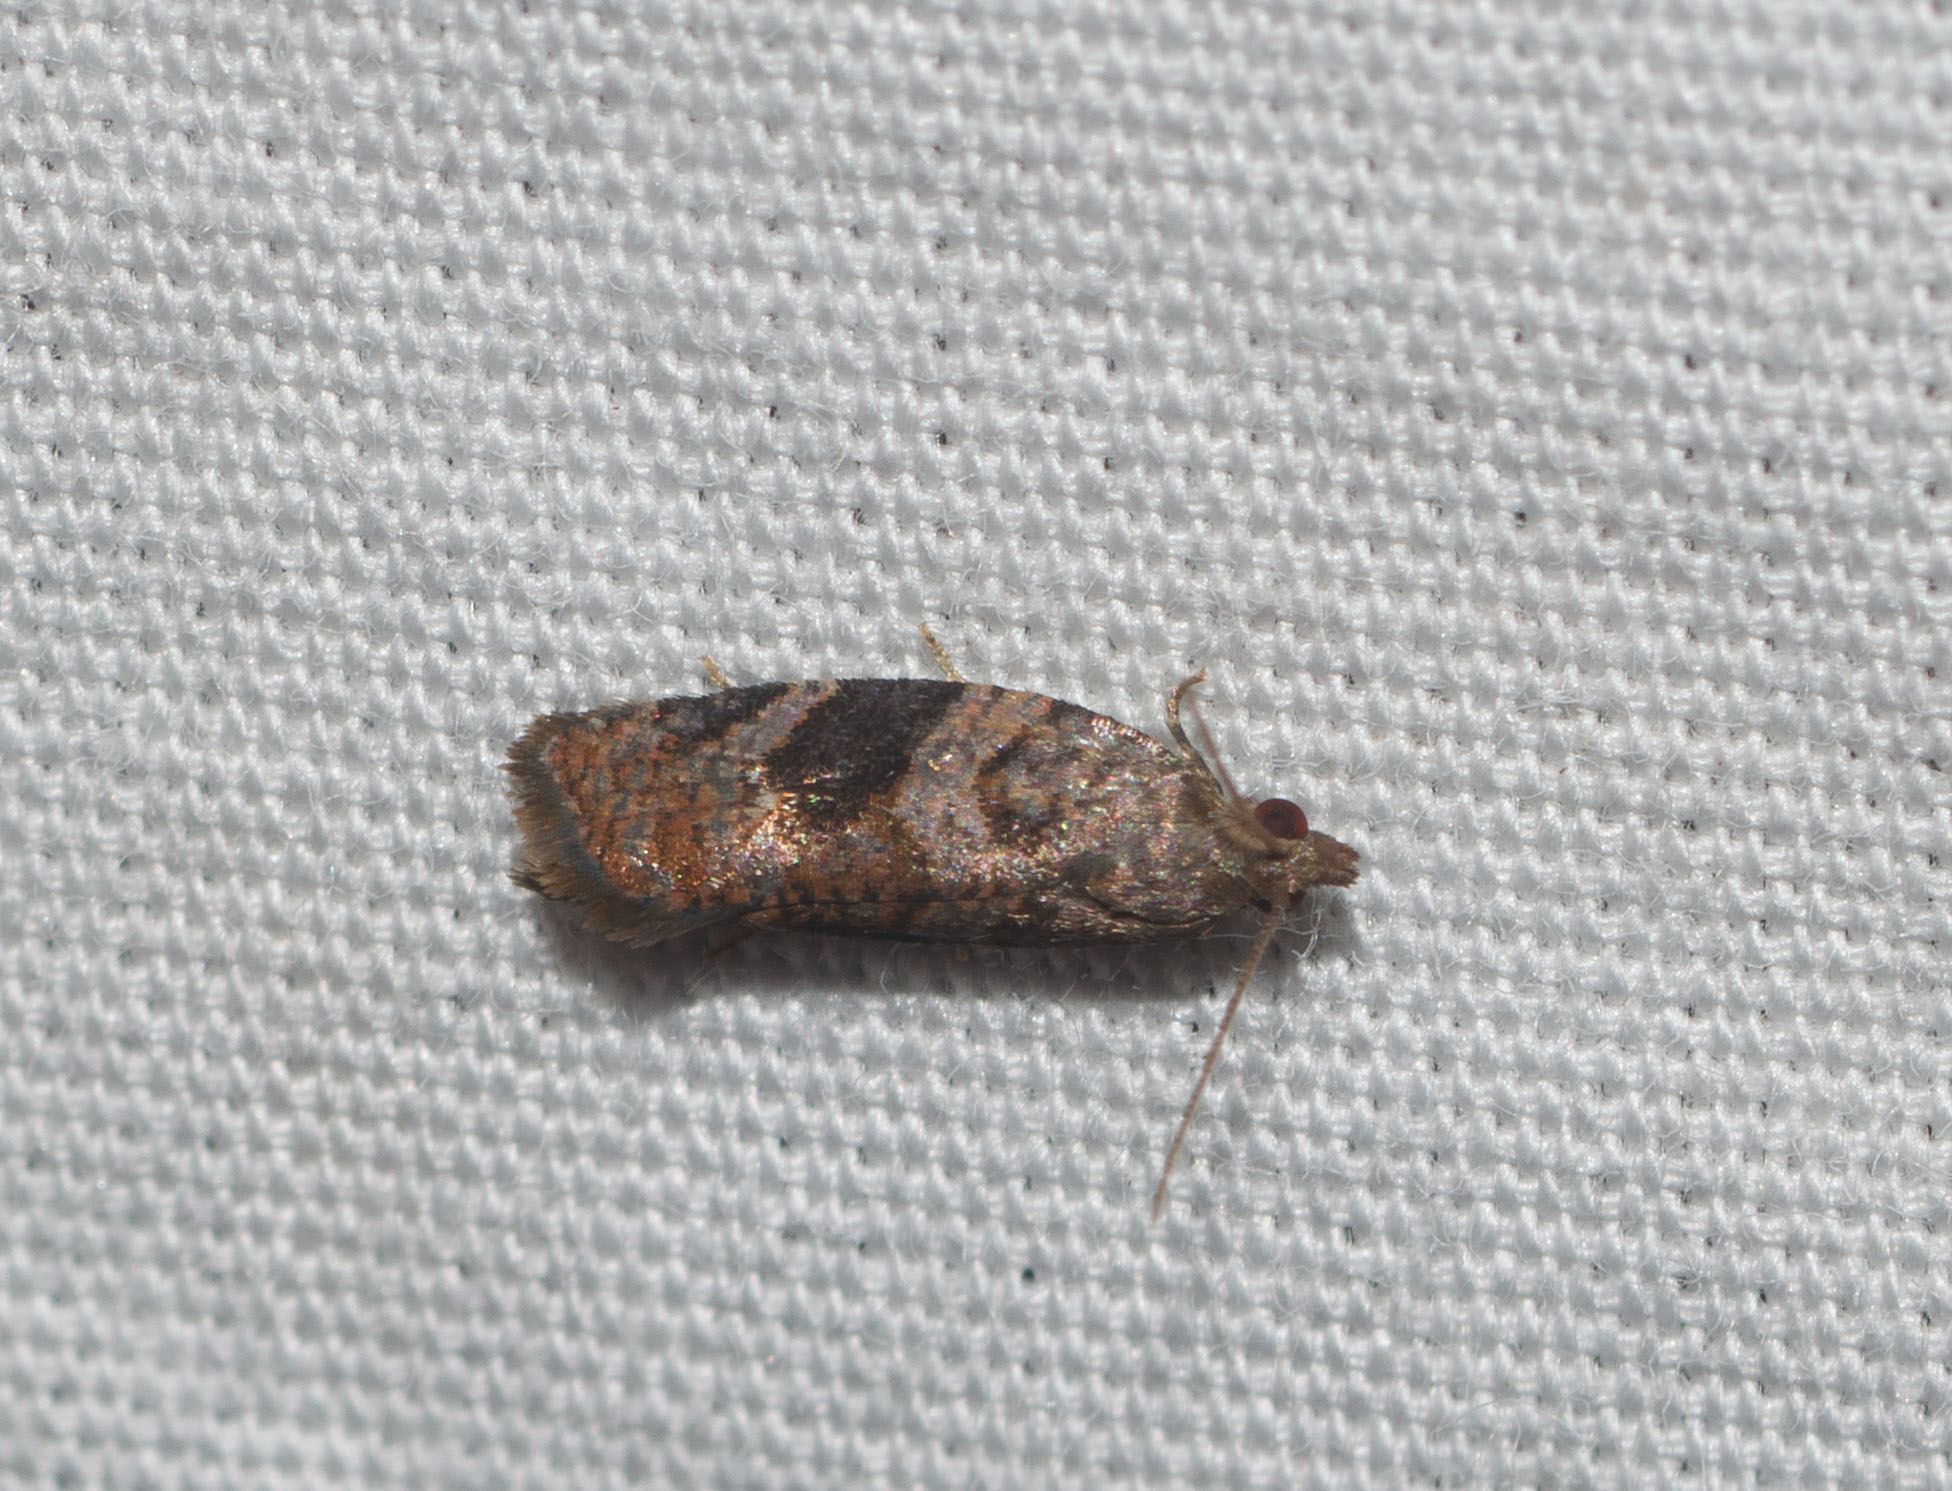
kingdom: Animalia
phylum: Arthropoda
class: Insecta
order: Lepidoptera
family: Tortricidae
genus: Spheterista
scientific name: Spheterista infaustana
